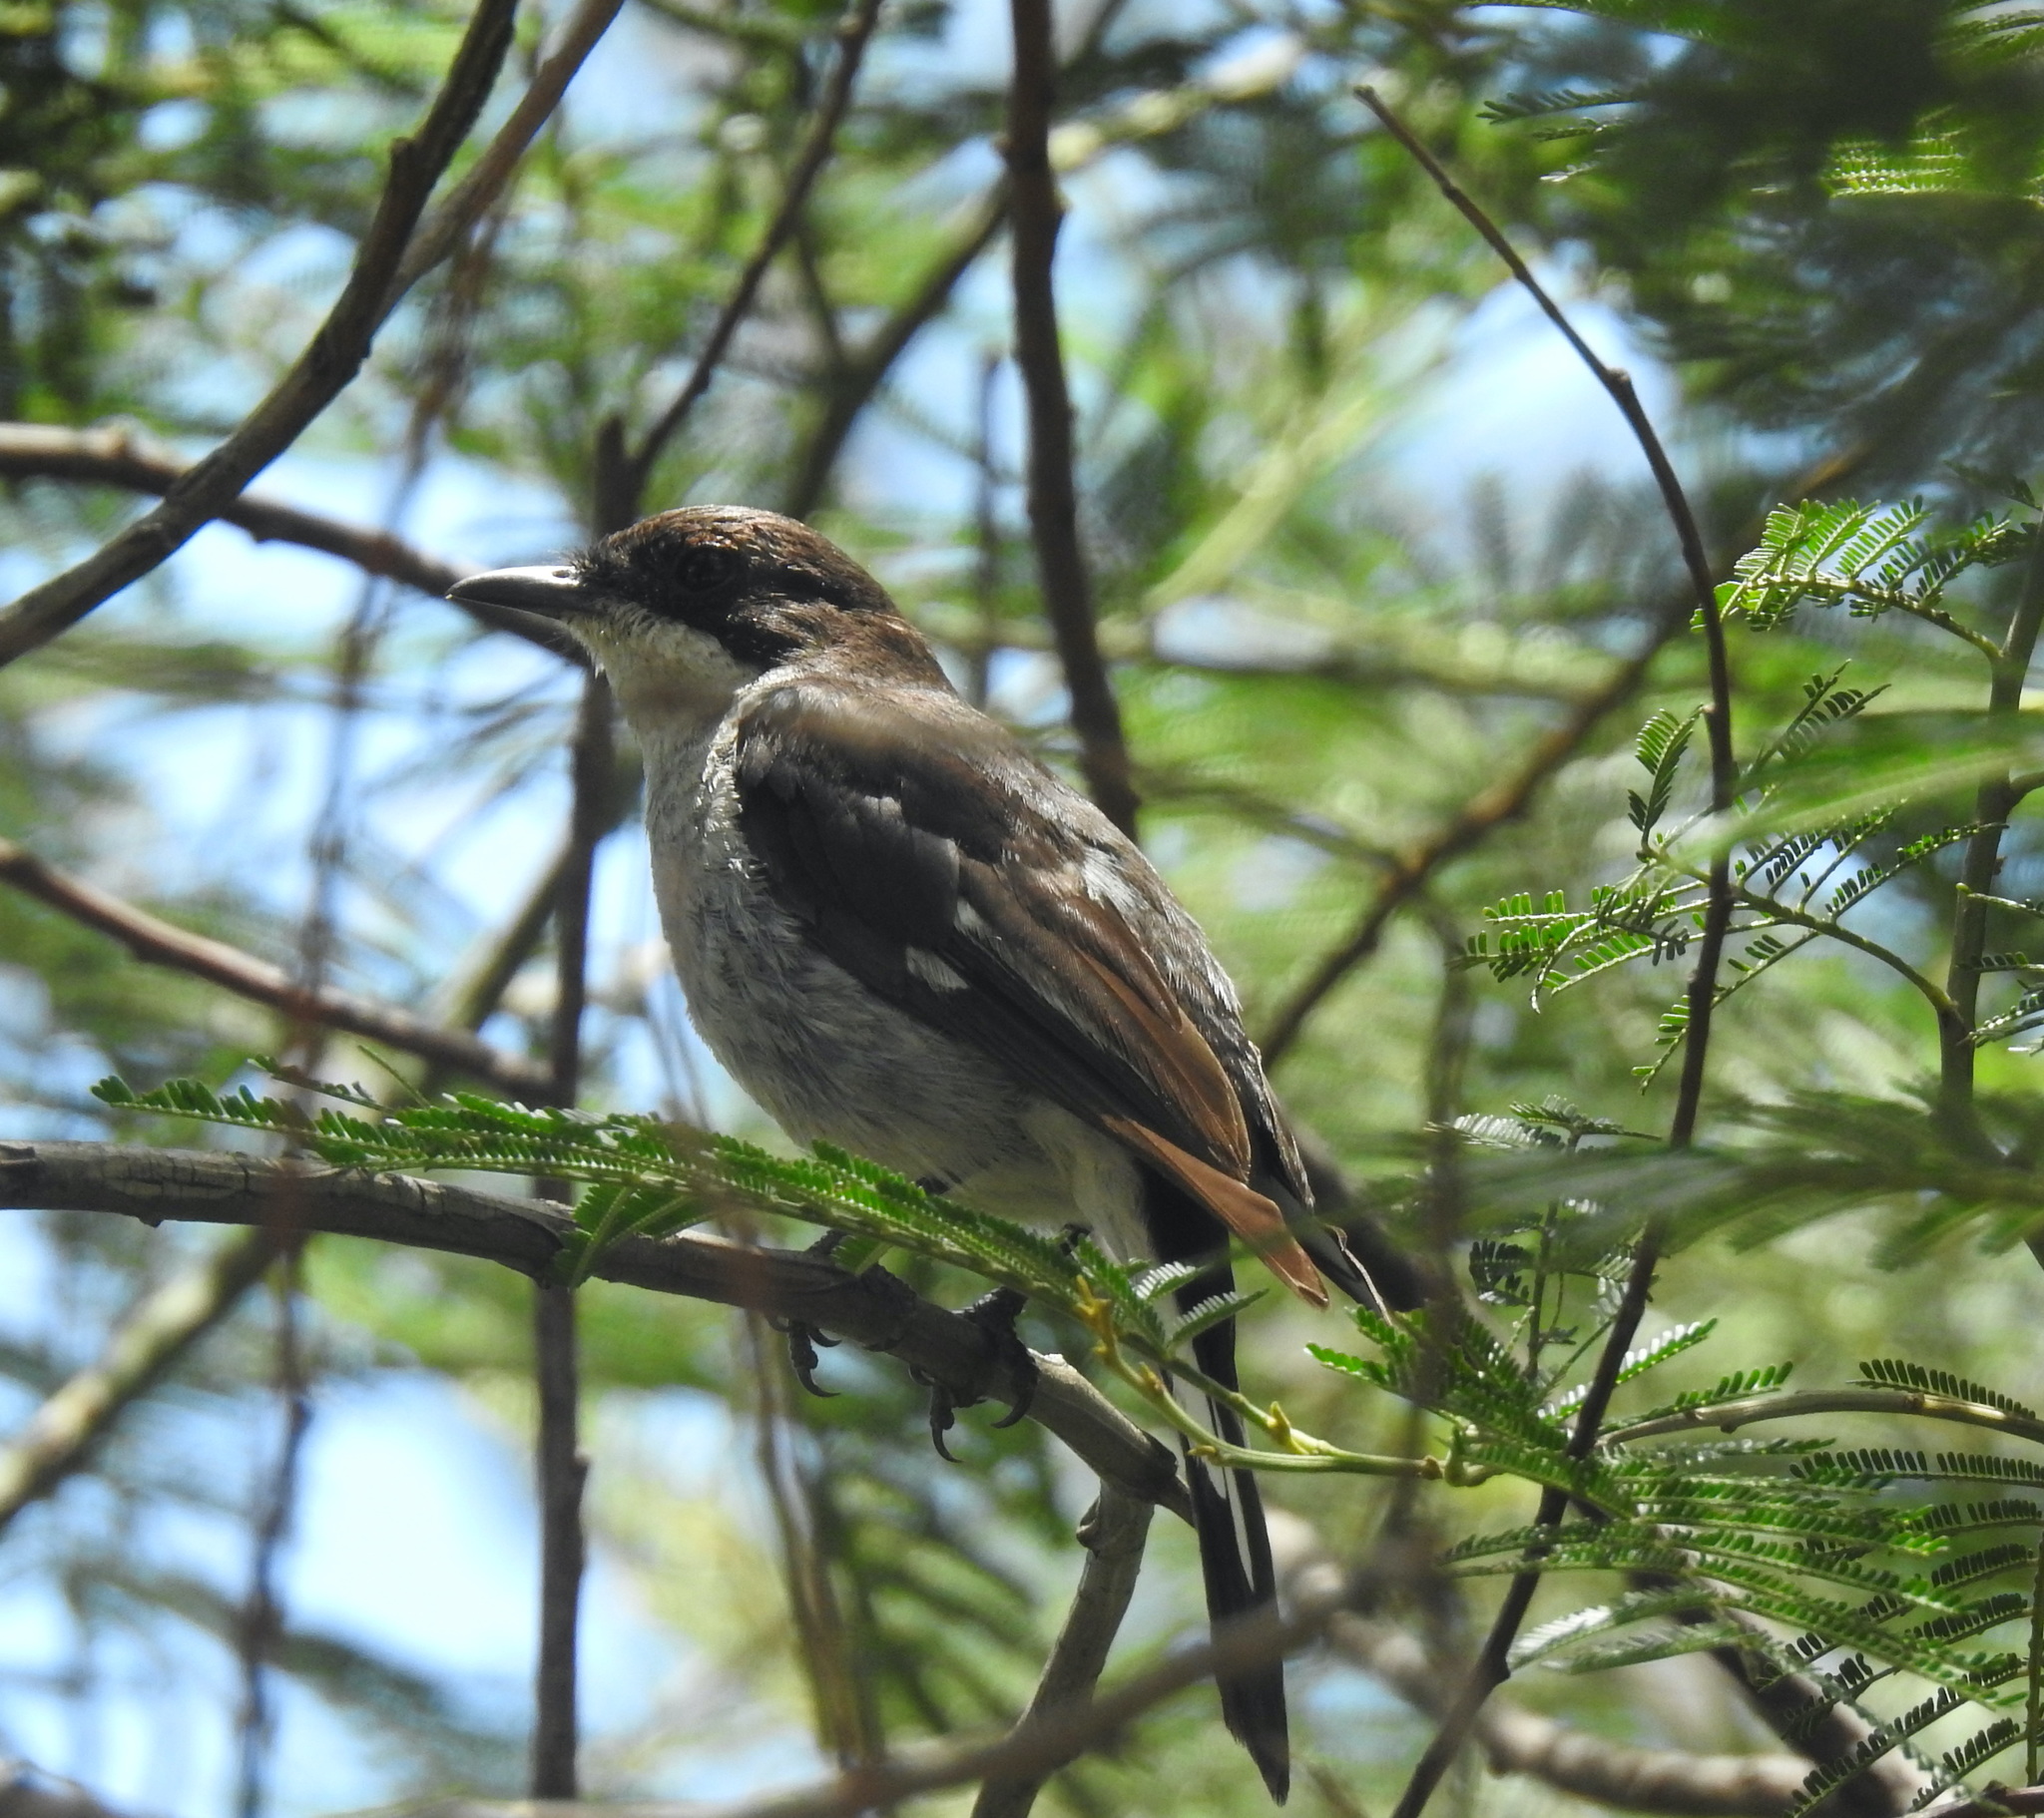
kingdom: Animalia
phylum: Chordata
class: Aves
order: Passeriformes
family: Muscicapidae
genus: Sigelus
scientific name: Sigelus silens
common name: Fiscal flycatcher
